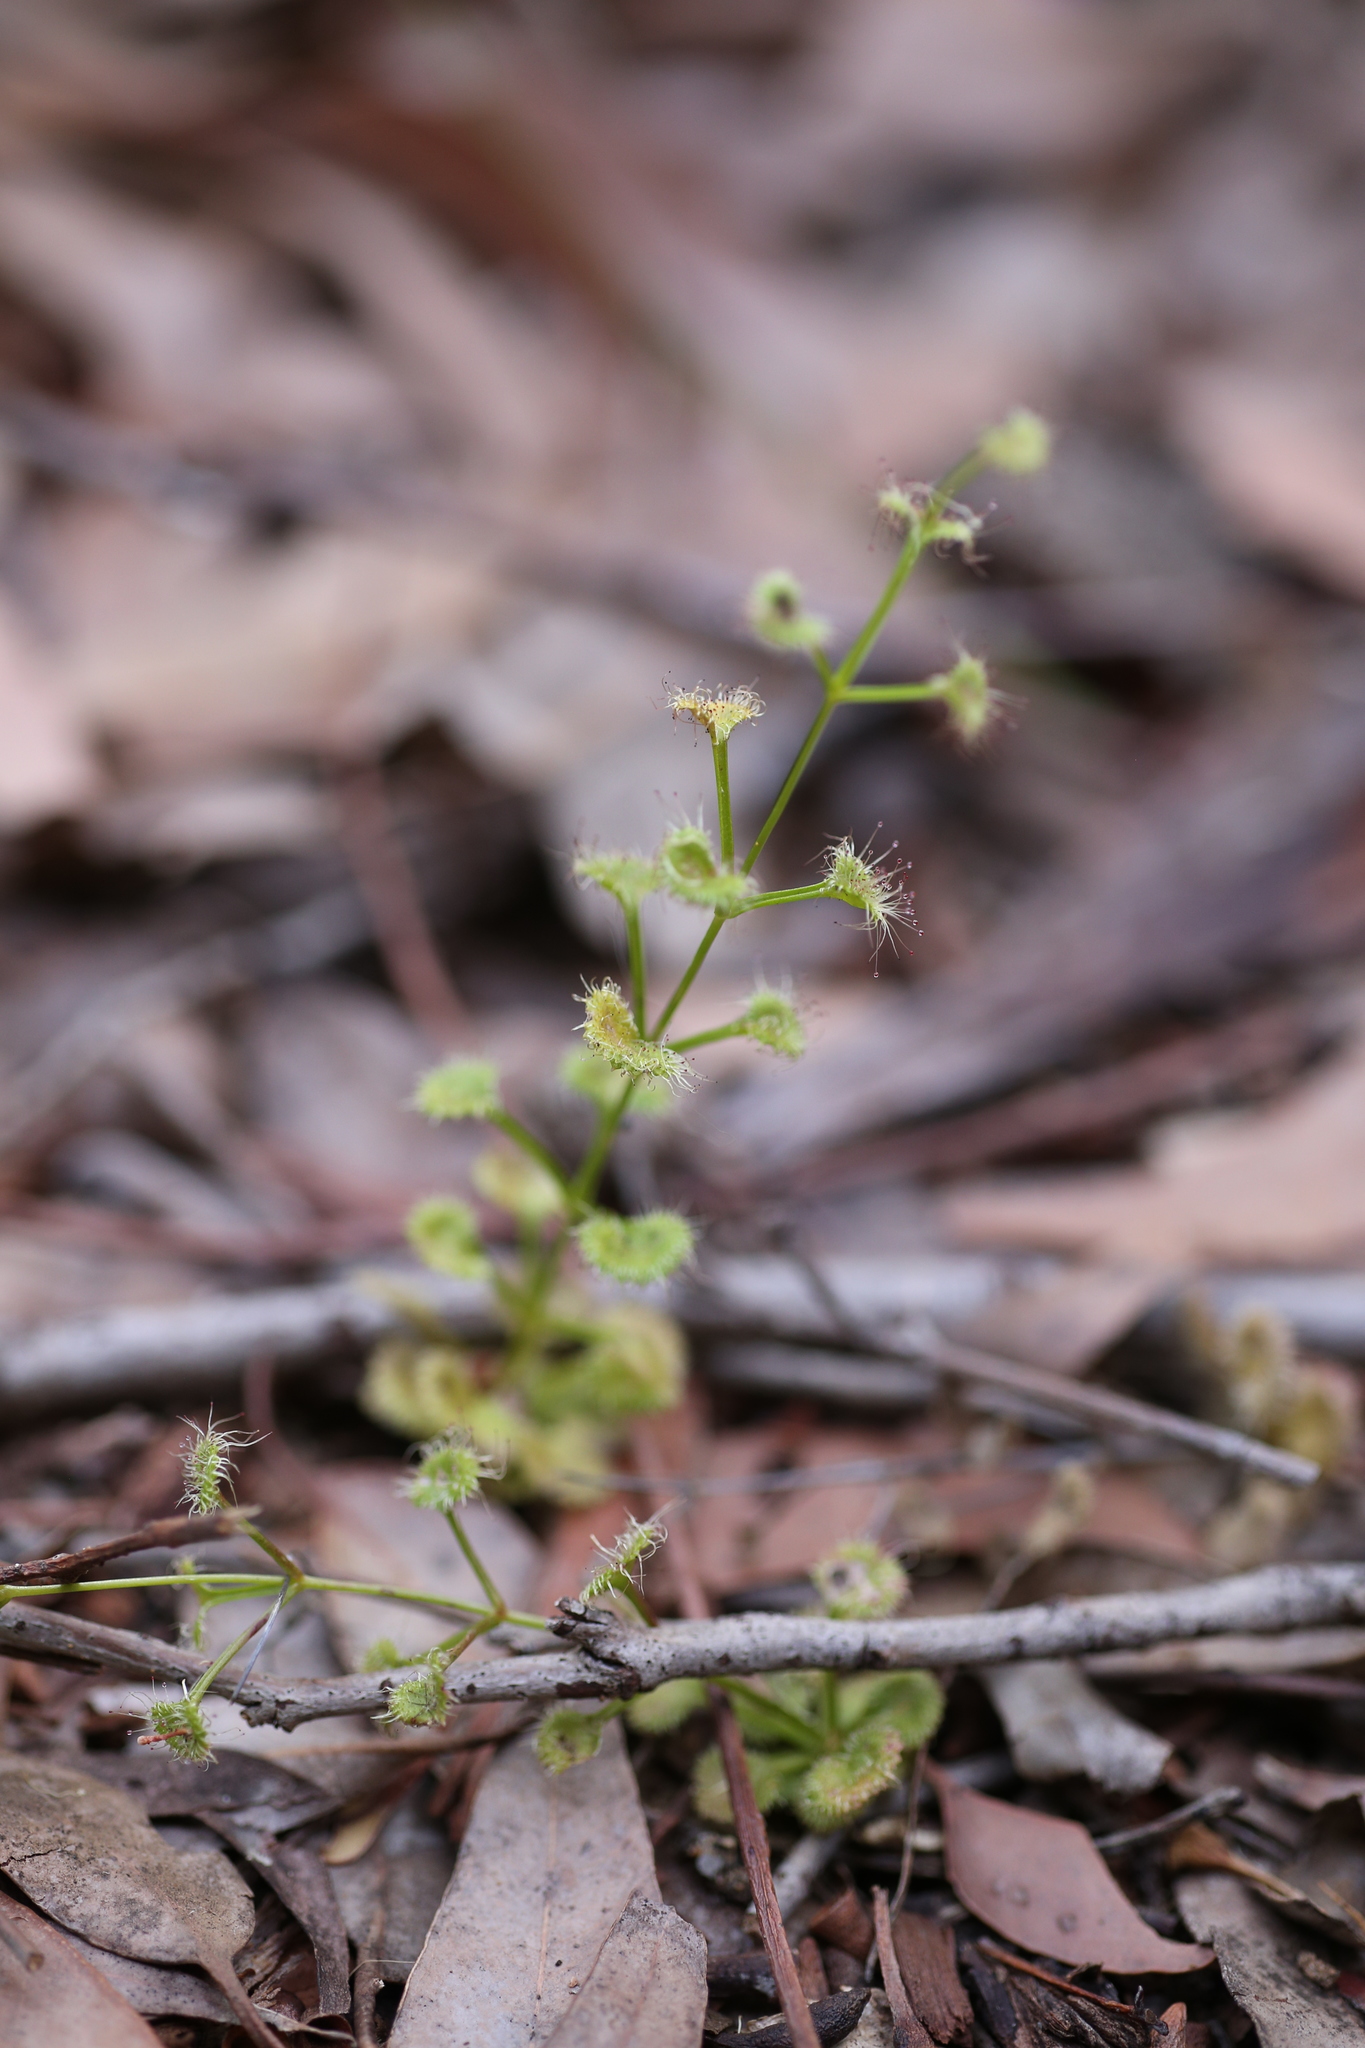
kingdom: Plantae
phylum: Tracheophyta
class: Magnoliopsida
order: Caryophyllales
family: Droseraceae
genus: Drosera
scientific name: Drosera stolonifera
